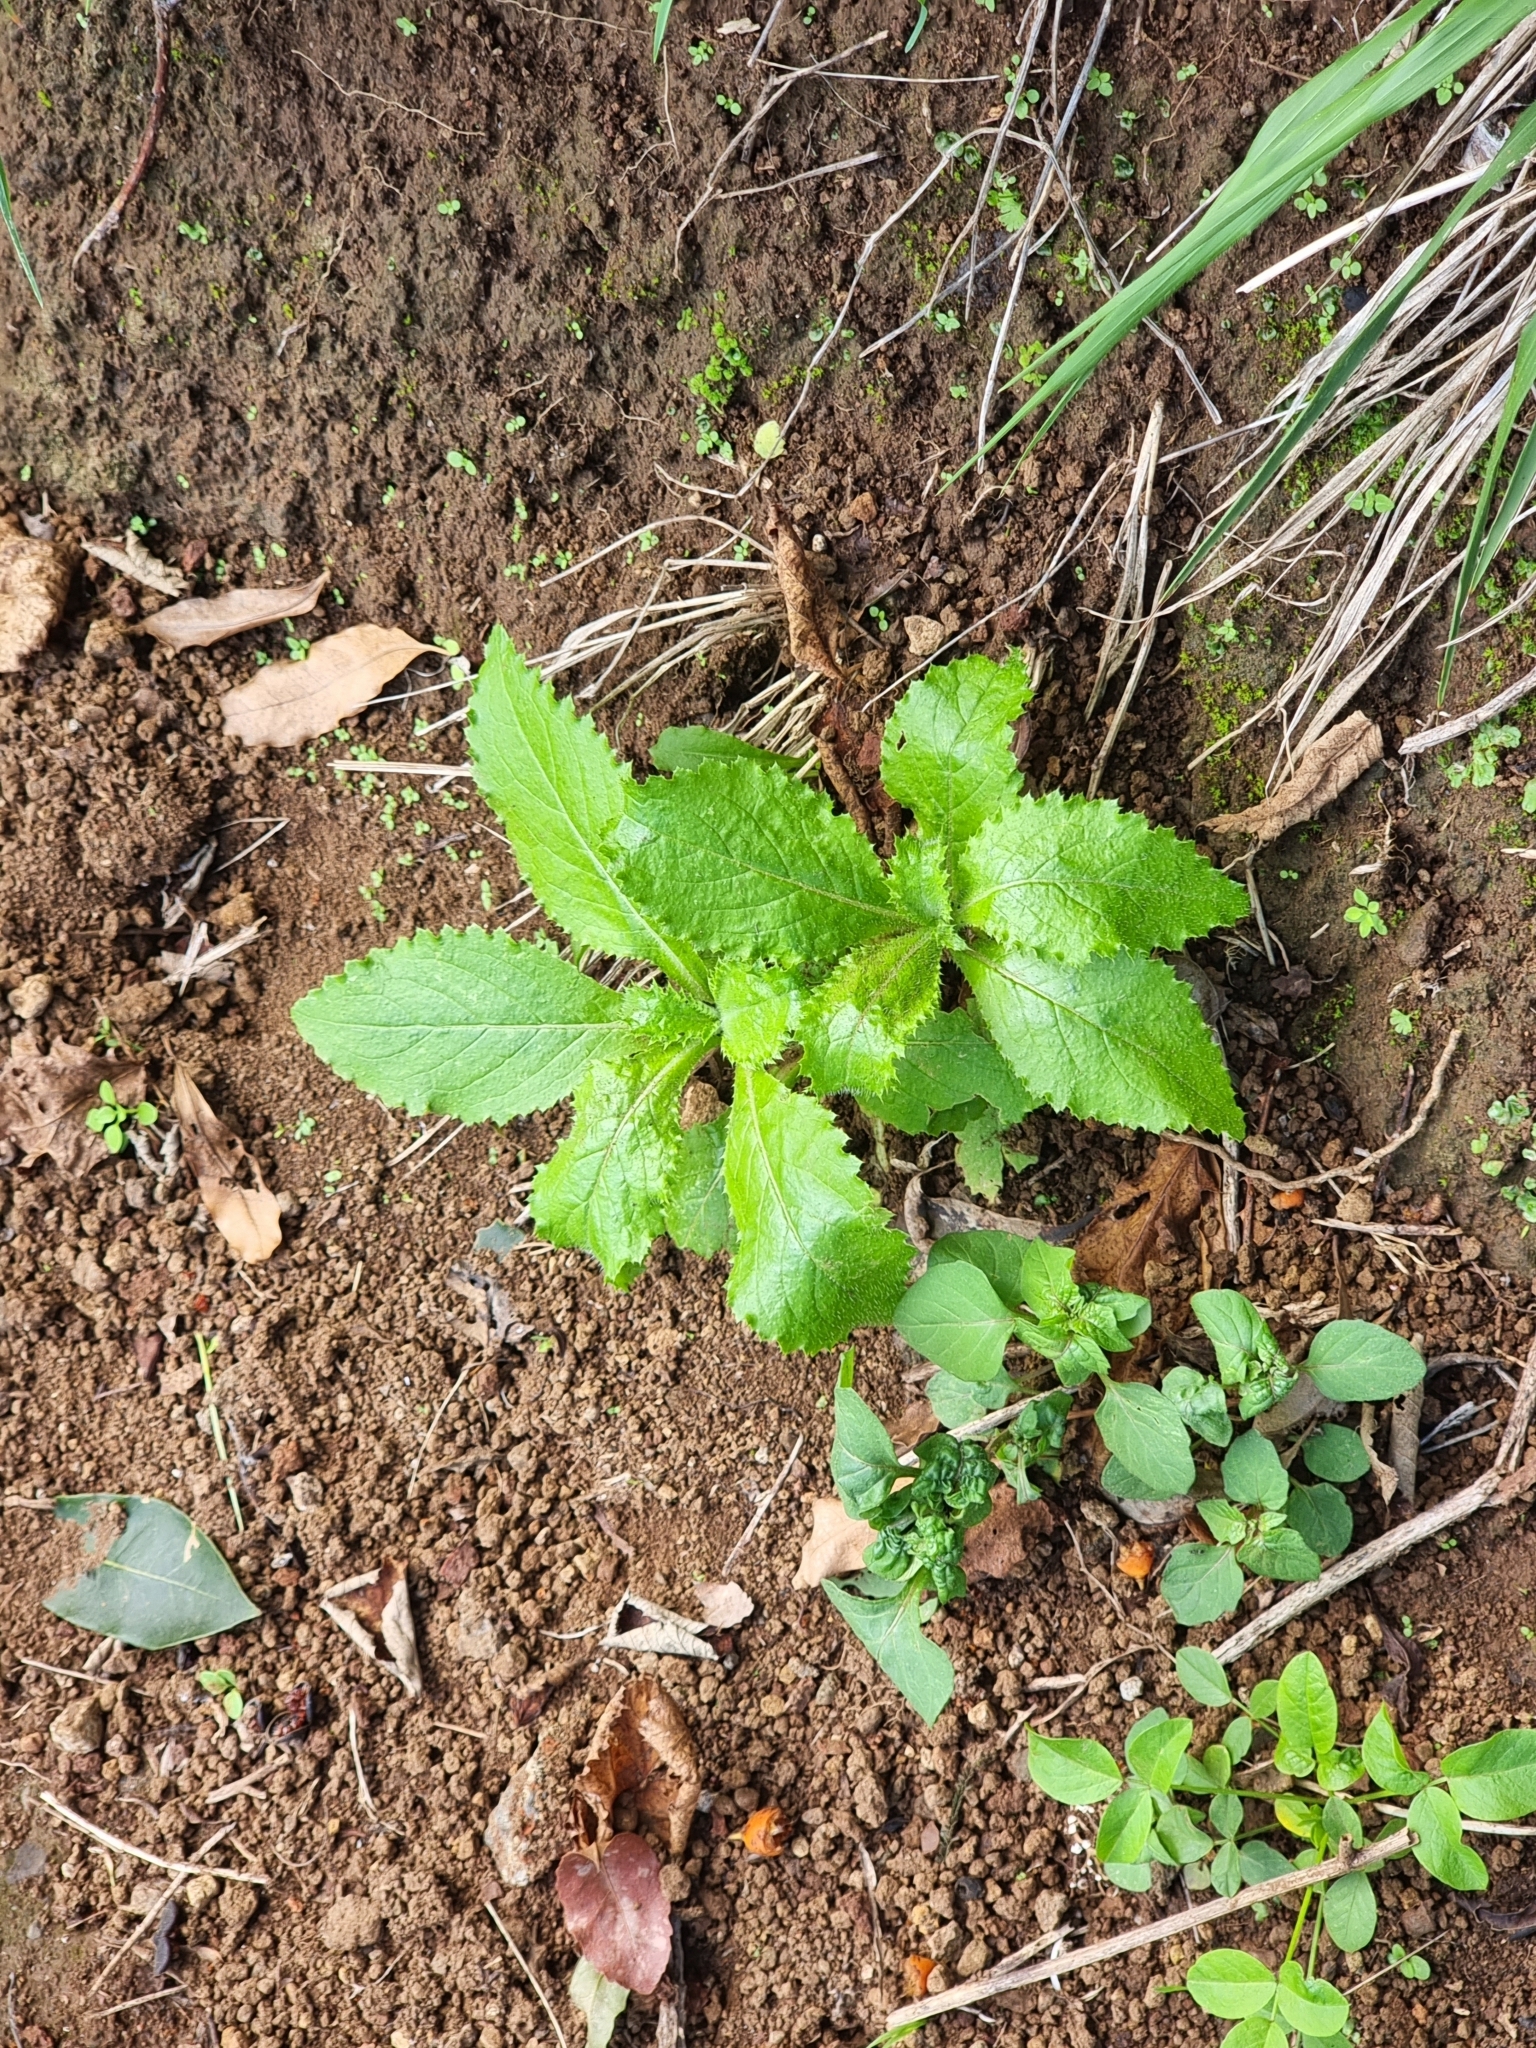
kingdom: Plantae
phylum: Tracheophyta
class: Magnoliopsida
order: Asterales
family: Asteraceae
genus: Carduus
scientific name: Carduus squarrosus
